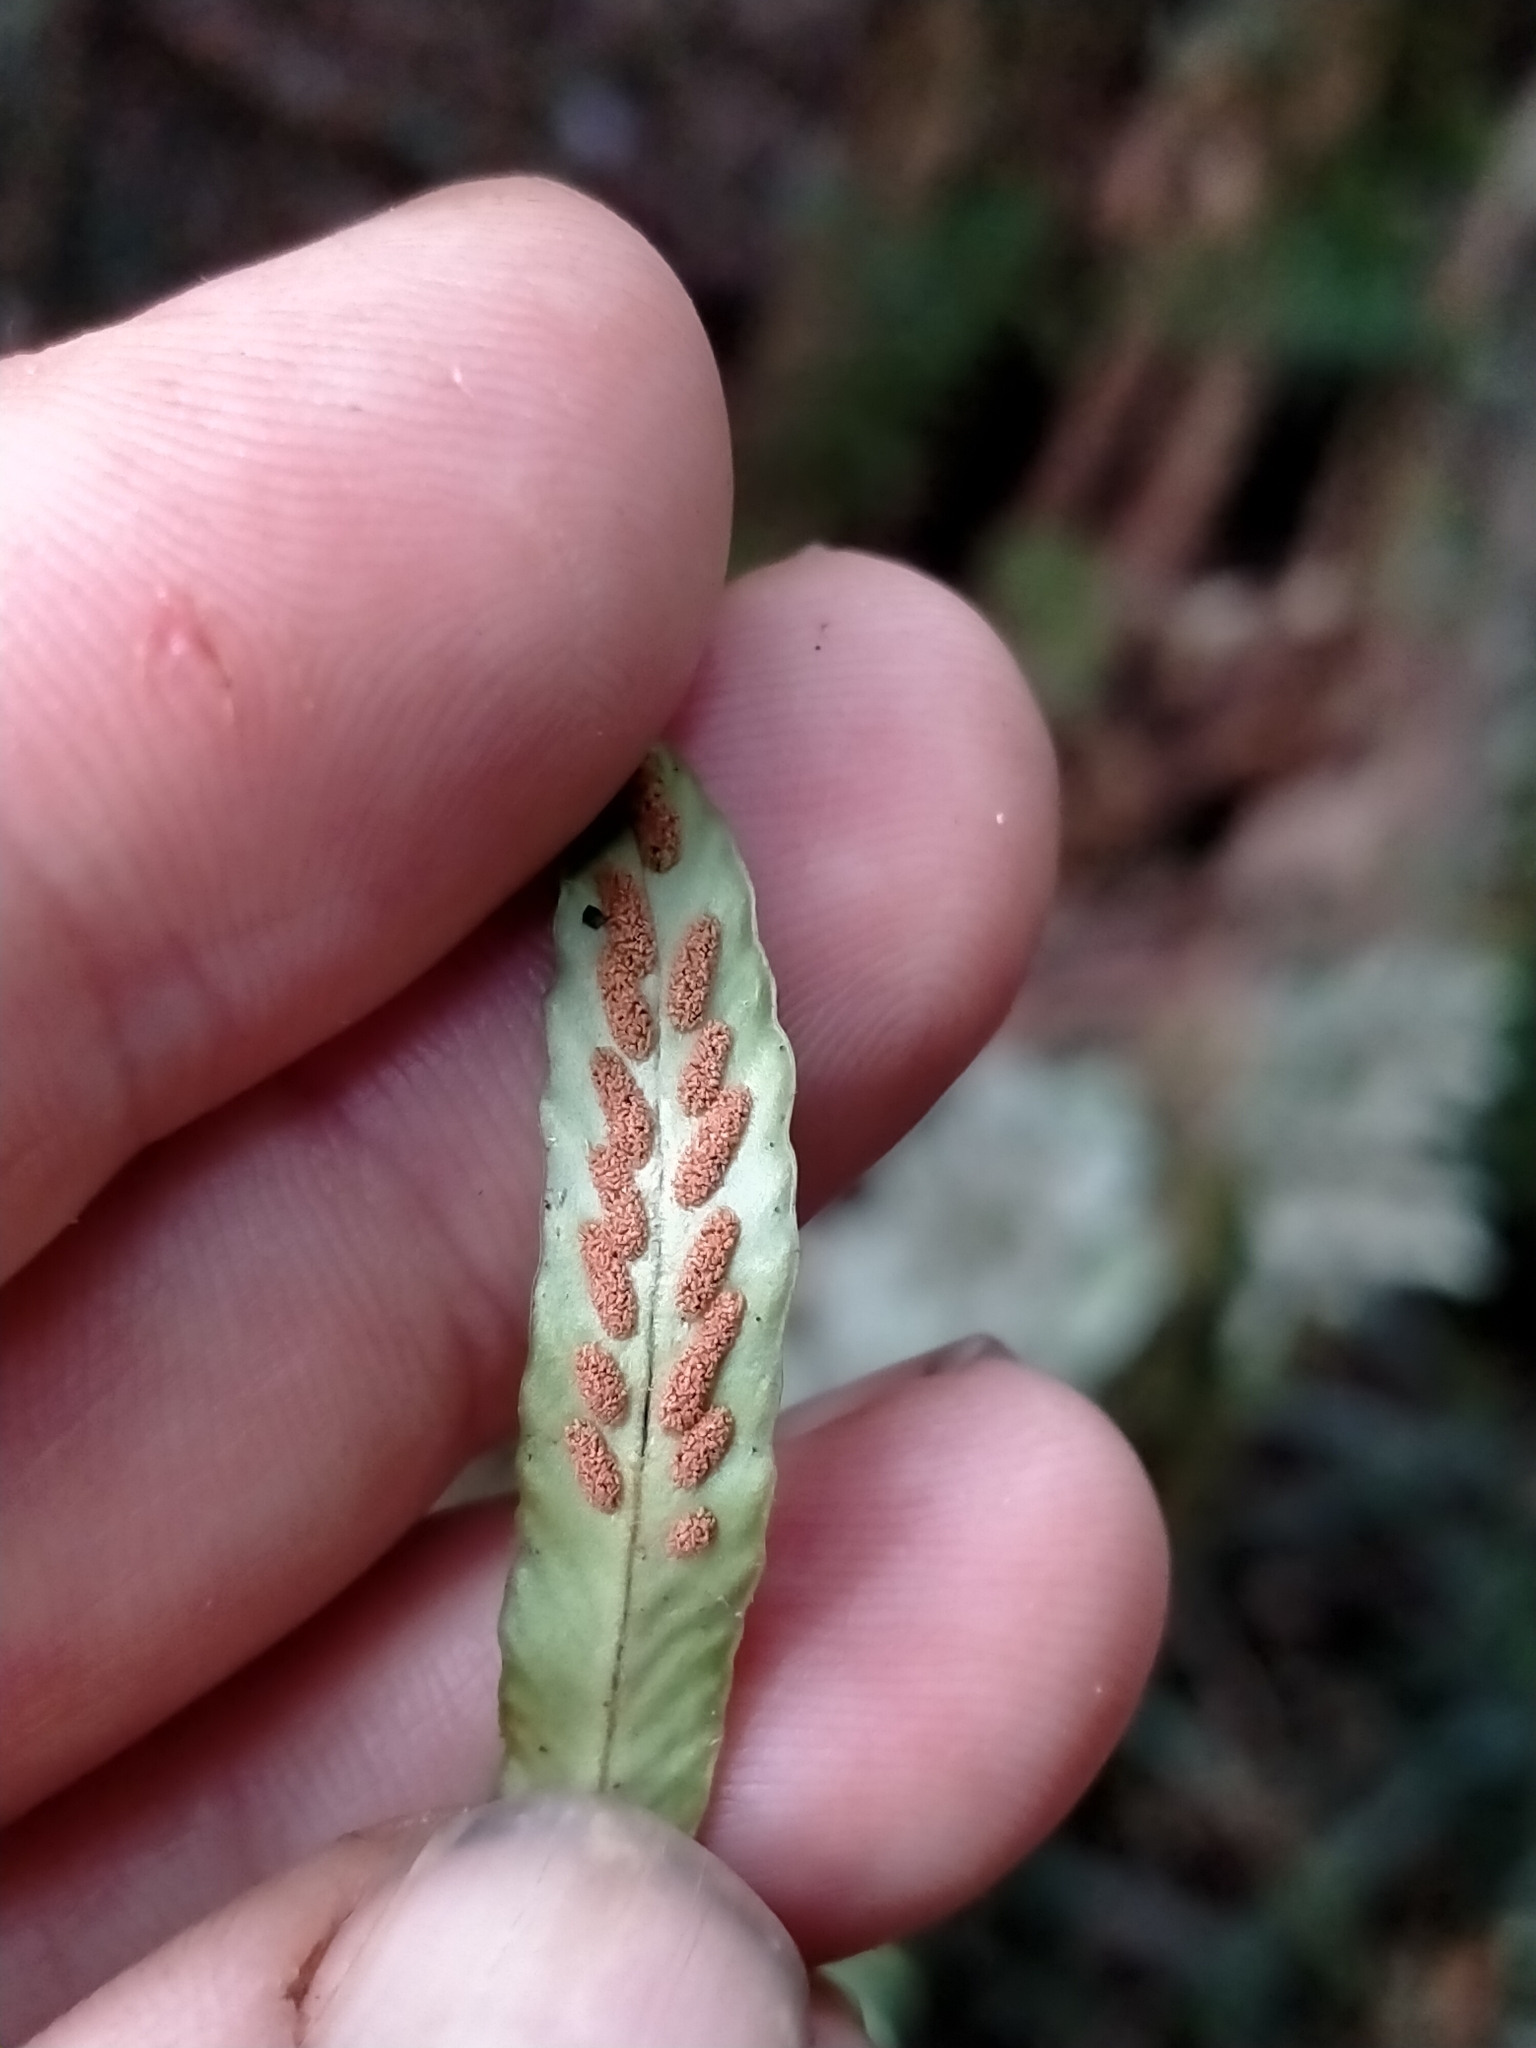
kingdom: Plantae
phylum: Tracheophyta
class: Polypodiopsida
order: Polypodiales
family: Polypodiaceae
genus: Notogrammitis
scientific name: Notogrammitis billardierei
